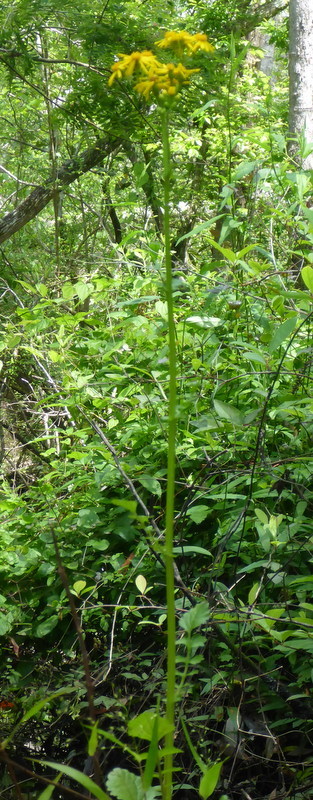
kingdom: Plantae
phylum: Tracheophyta
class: Magnoliopsida
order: Asterales
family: Asteraceae
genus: Packera
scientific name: Packera glabella
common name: Butterweed
